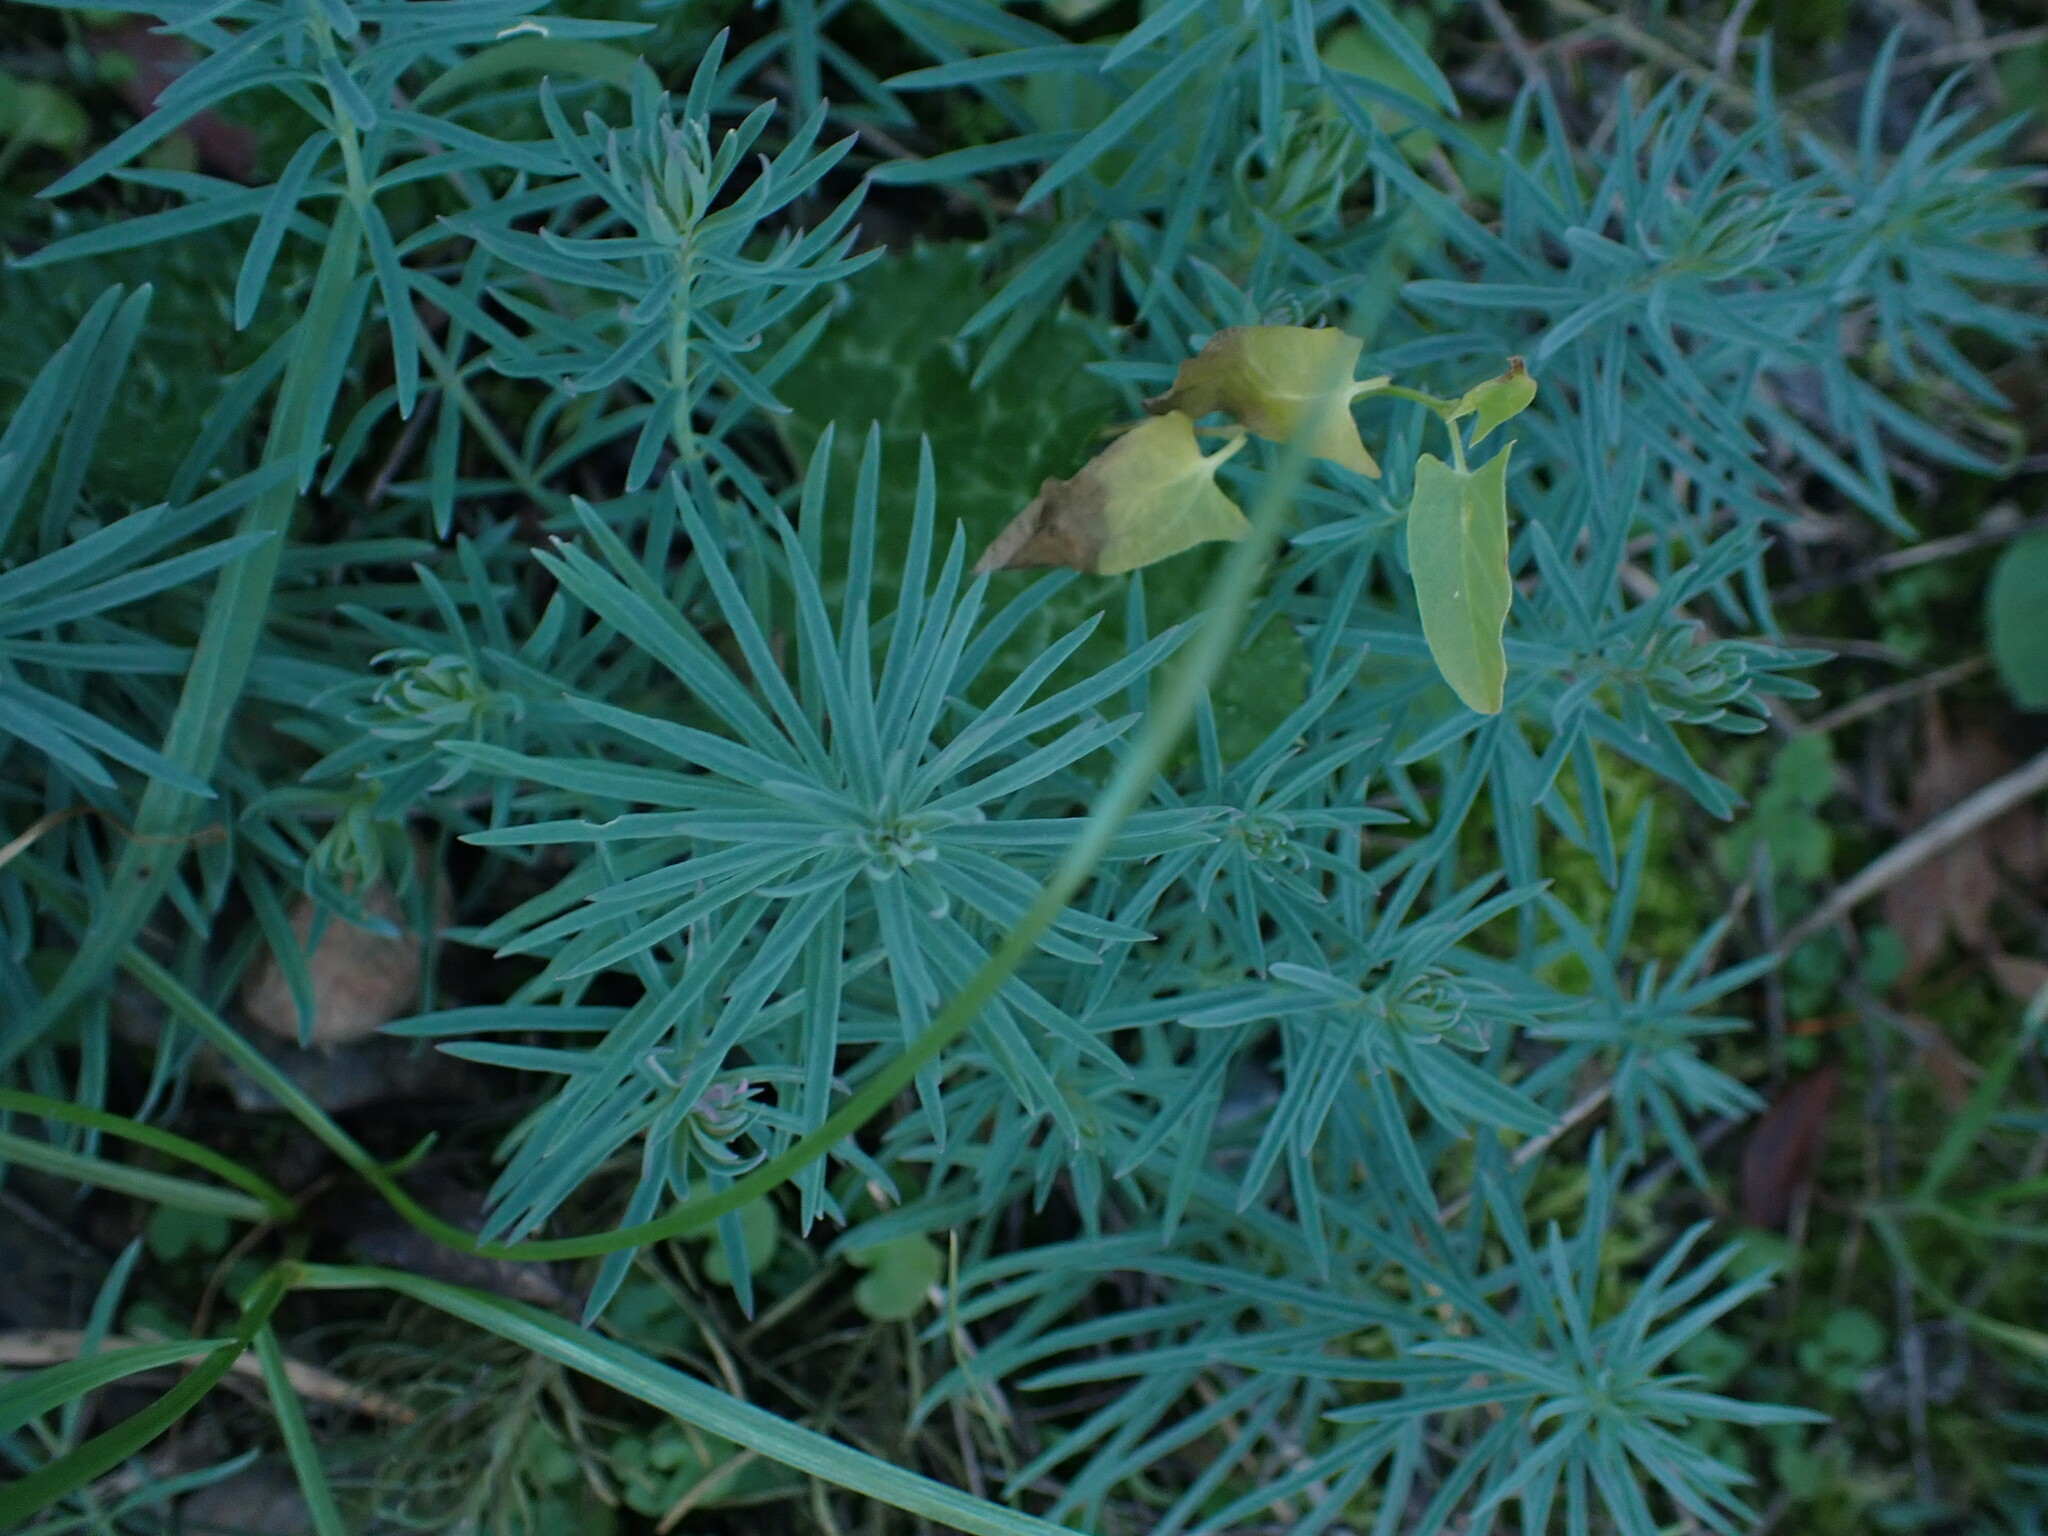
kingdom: Plantae
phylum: Tracheophyta
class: Magnoliopsida
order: Malpighiales
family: Euphorbiaceae
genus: Euphorbia
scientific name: Euphorbia cyparissias
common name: Cypress spurge
